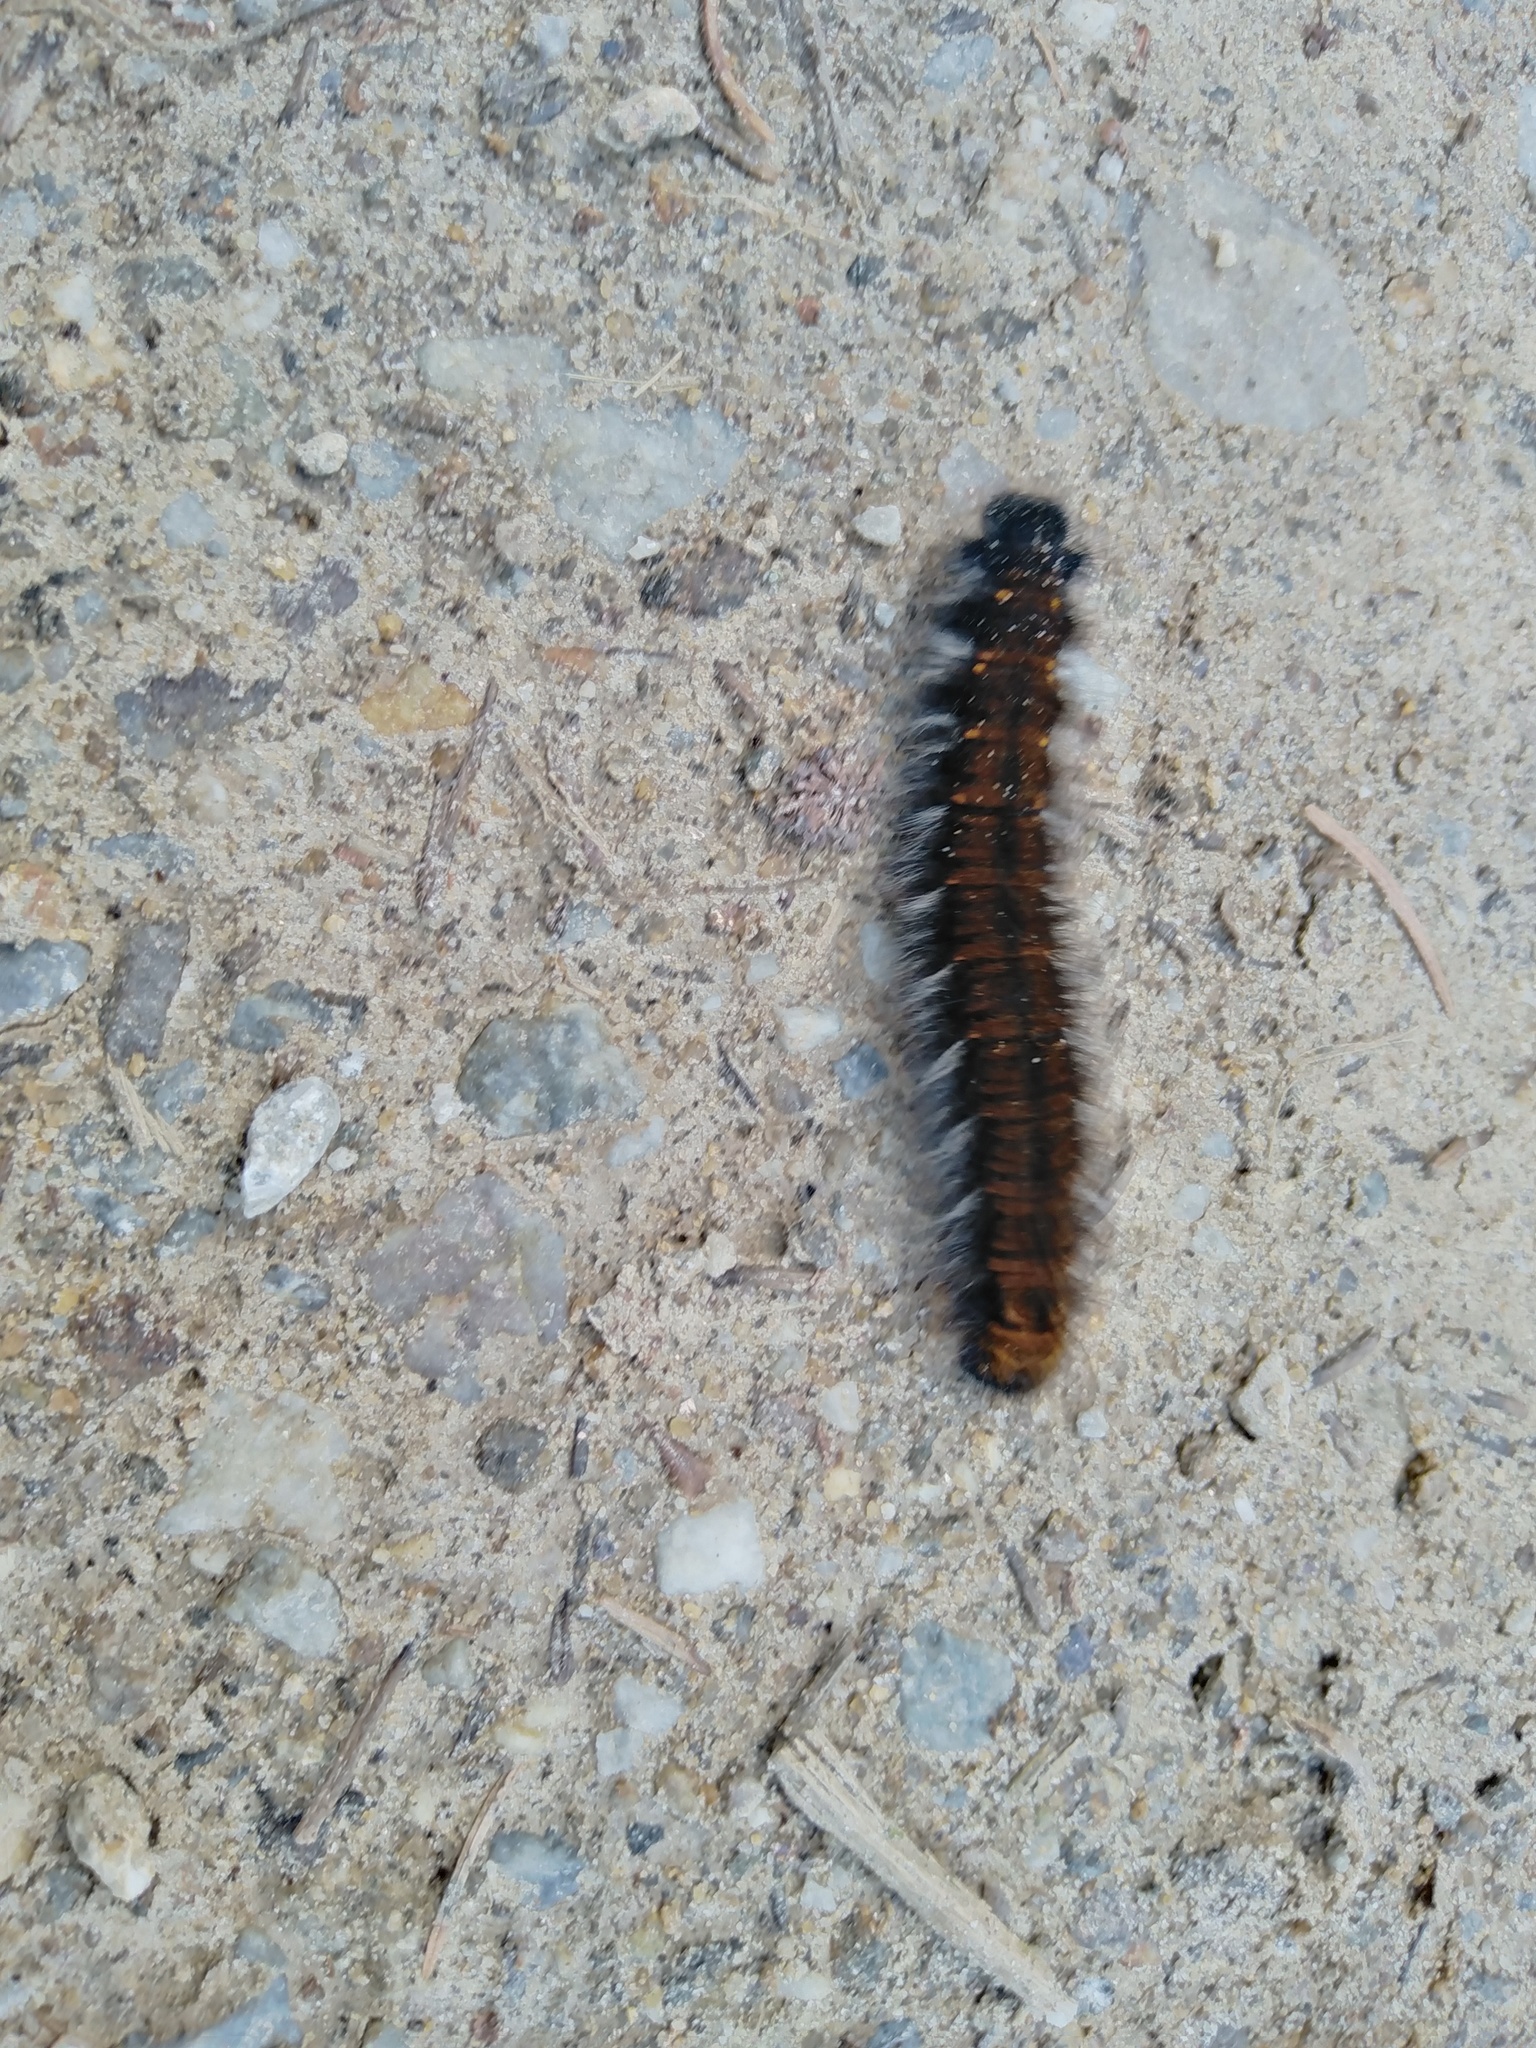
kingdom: Animalia
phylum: Arthropoda
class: Insecta
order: Lepidoptera
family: Lasiocampidae
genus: Macrothylacia
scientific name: Macrothylacia rubi
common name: Fox moth
